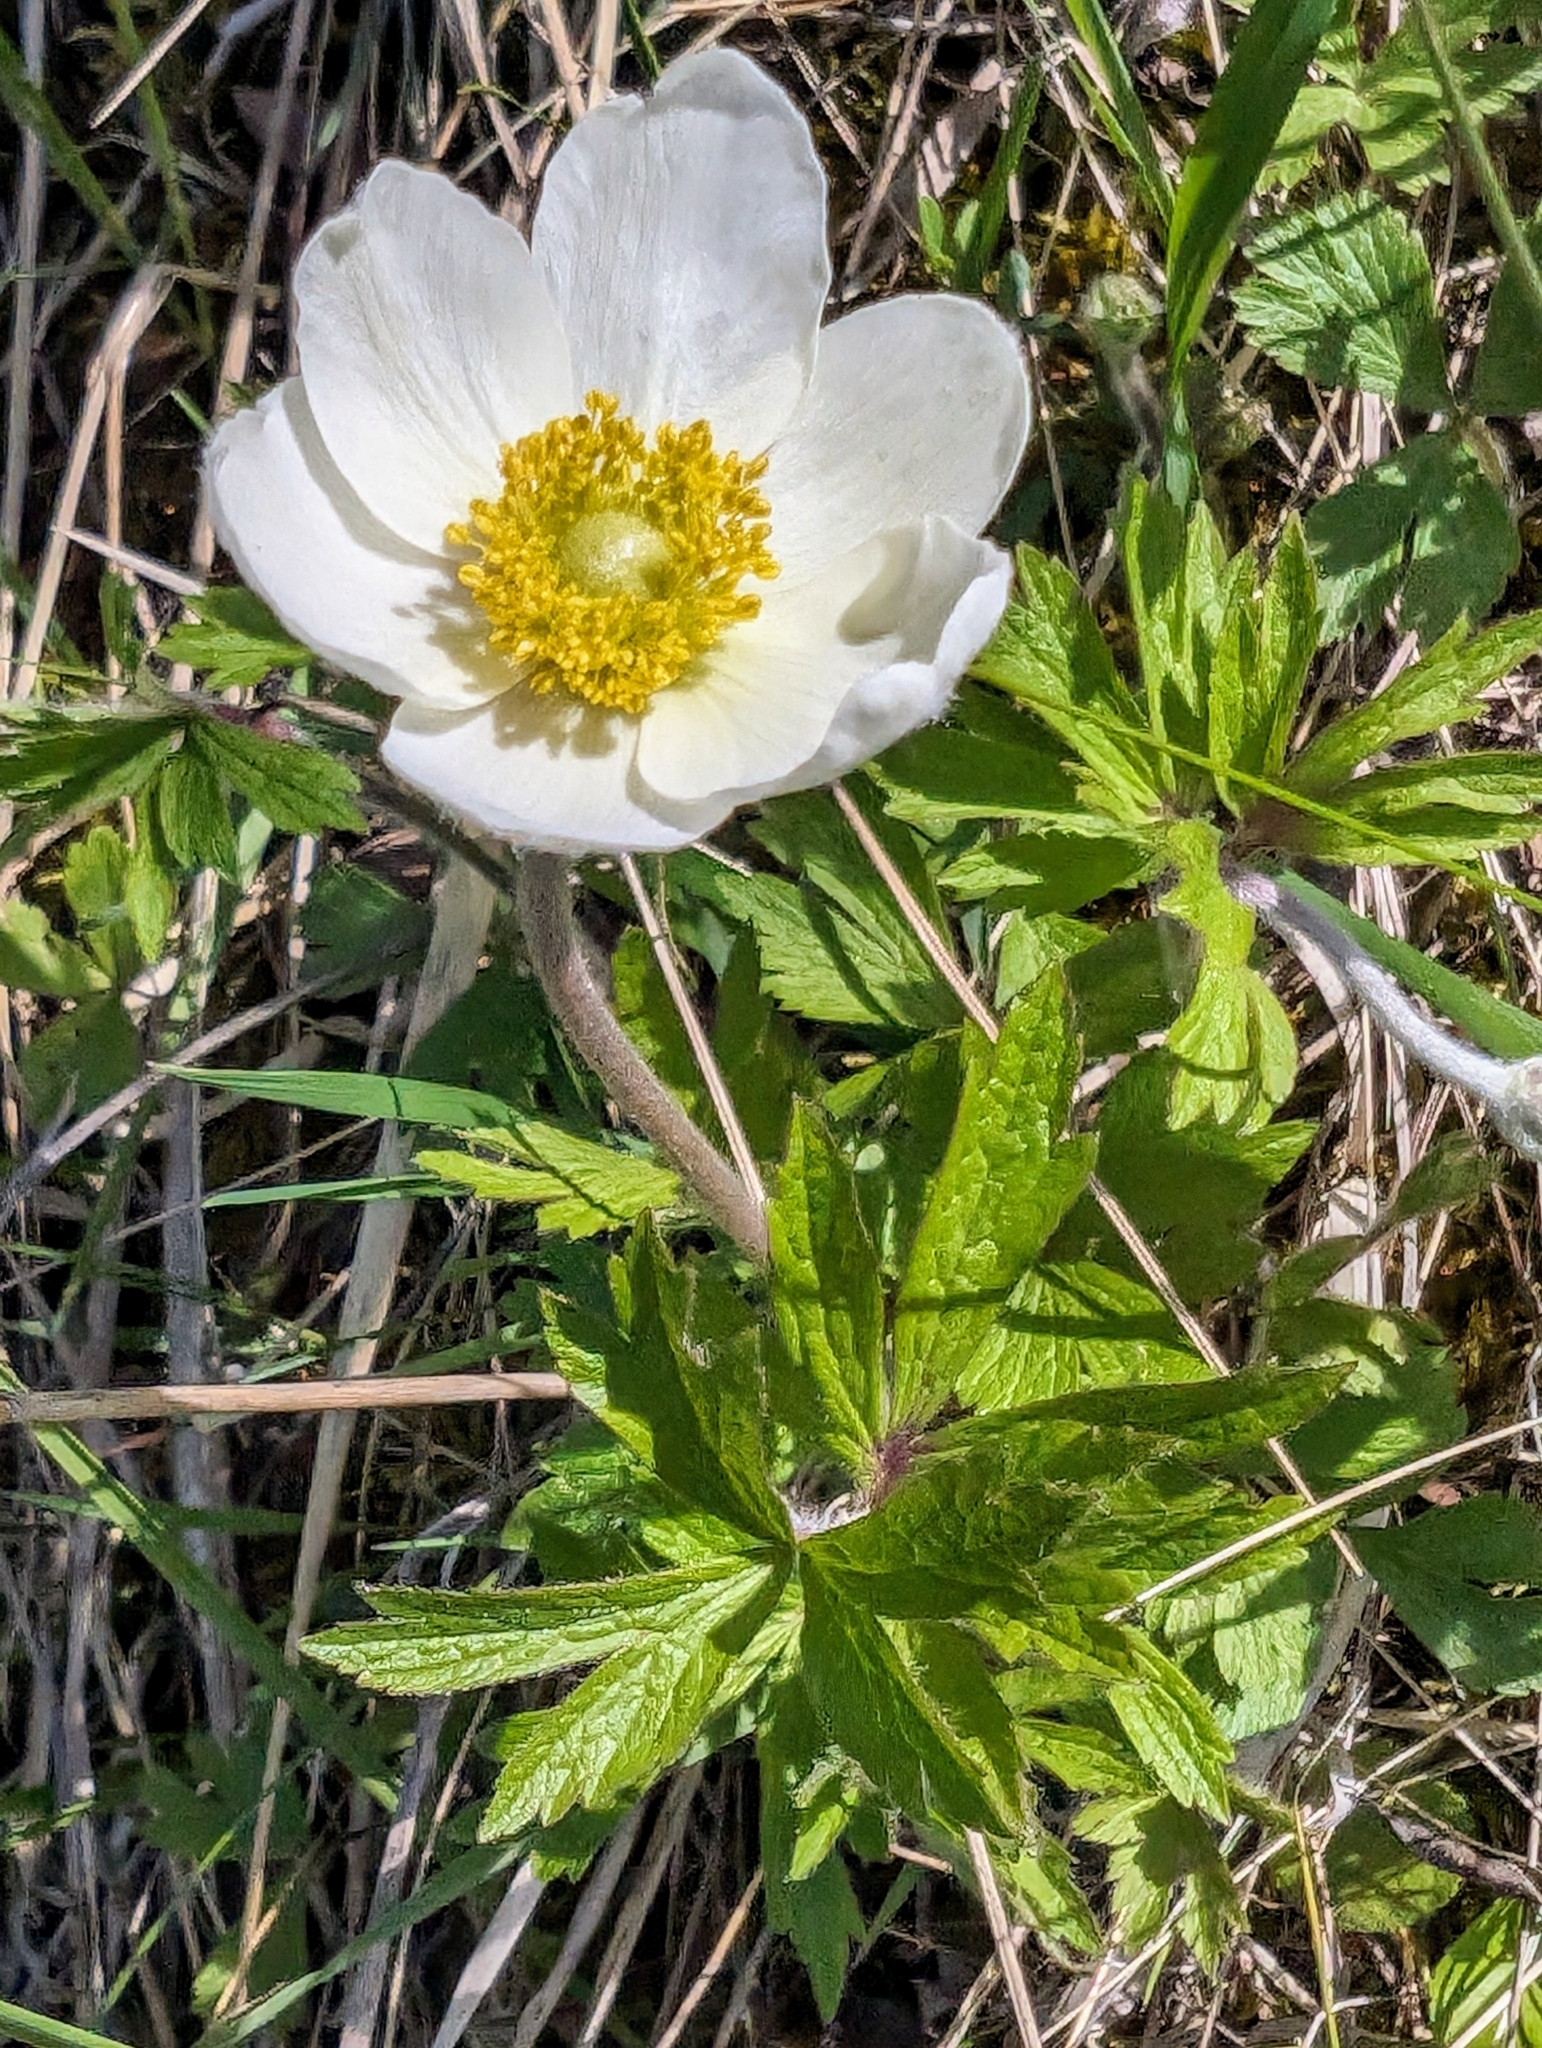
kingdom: Plantae
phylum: Tracheophyta
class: Magnoliopsida
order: Ranunculales
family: Ranunculaceae
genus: Anemone
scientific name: Anemone sylvestris
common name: Snowdrop anemone
